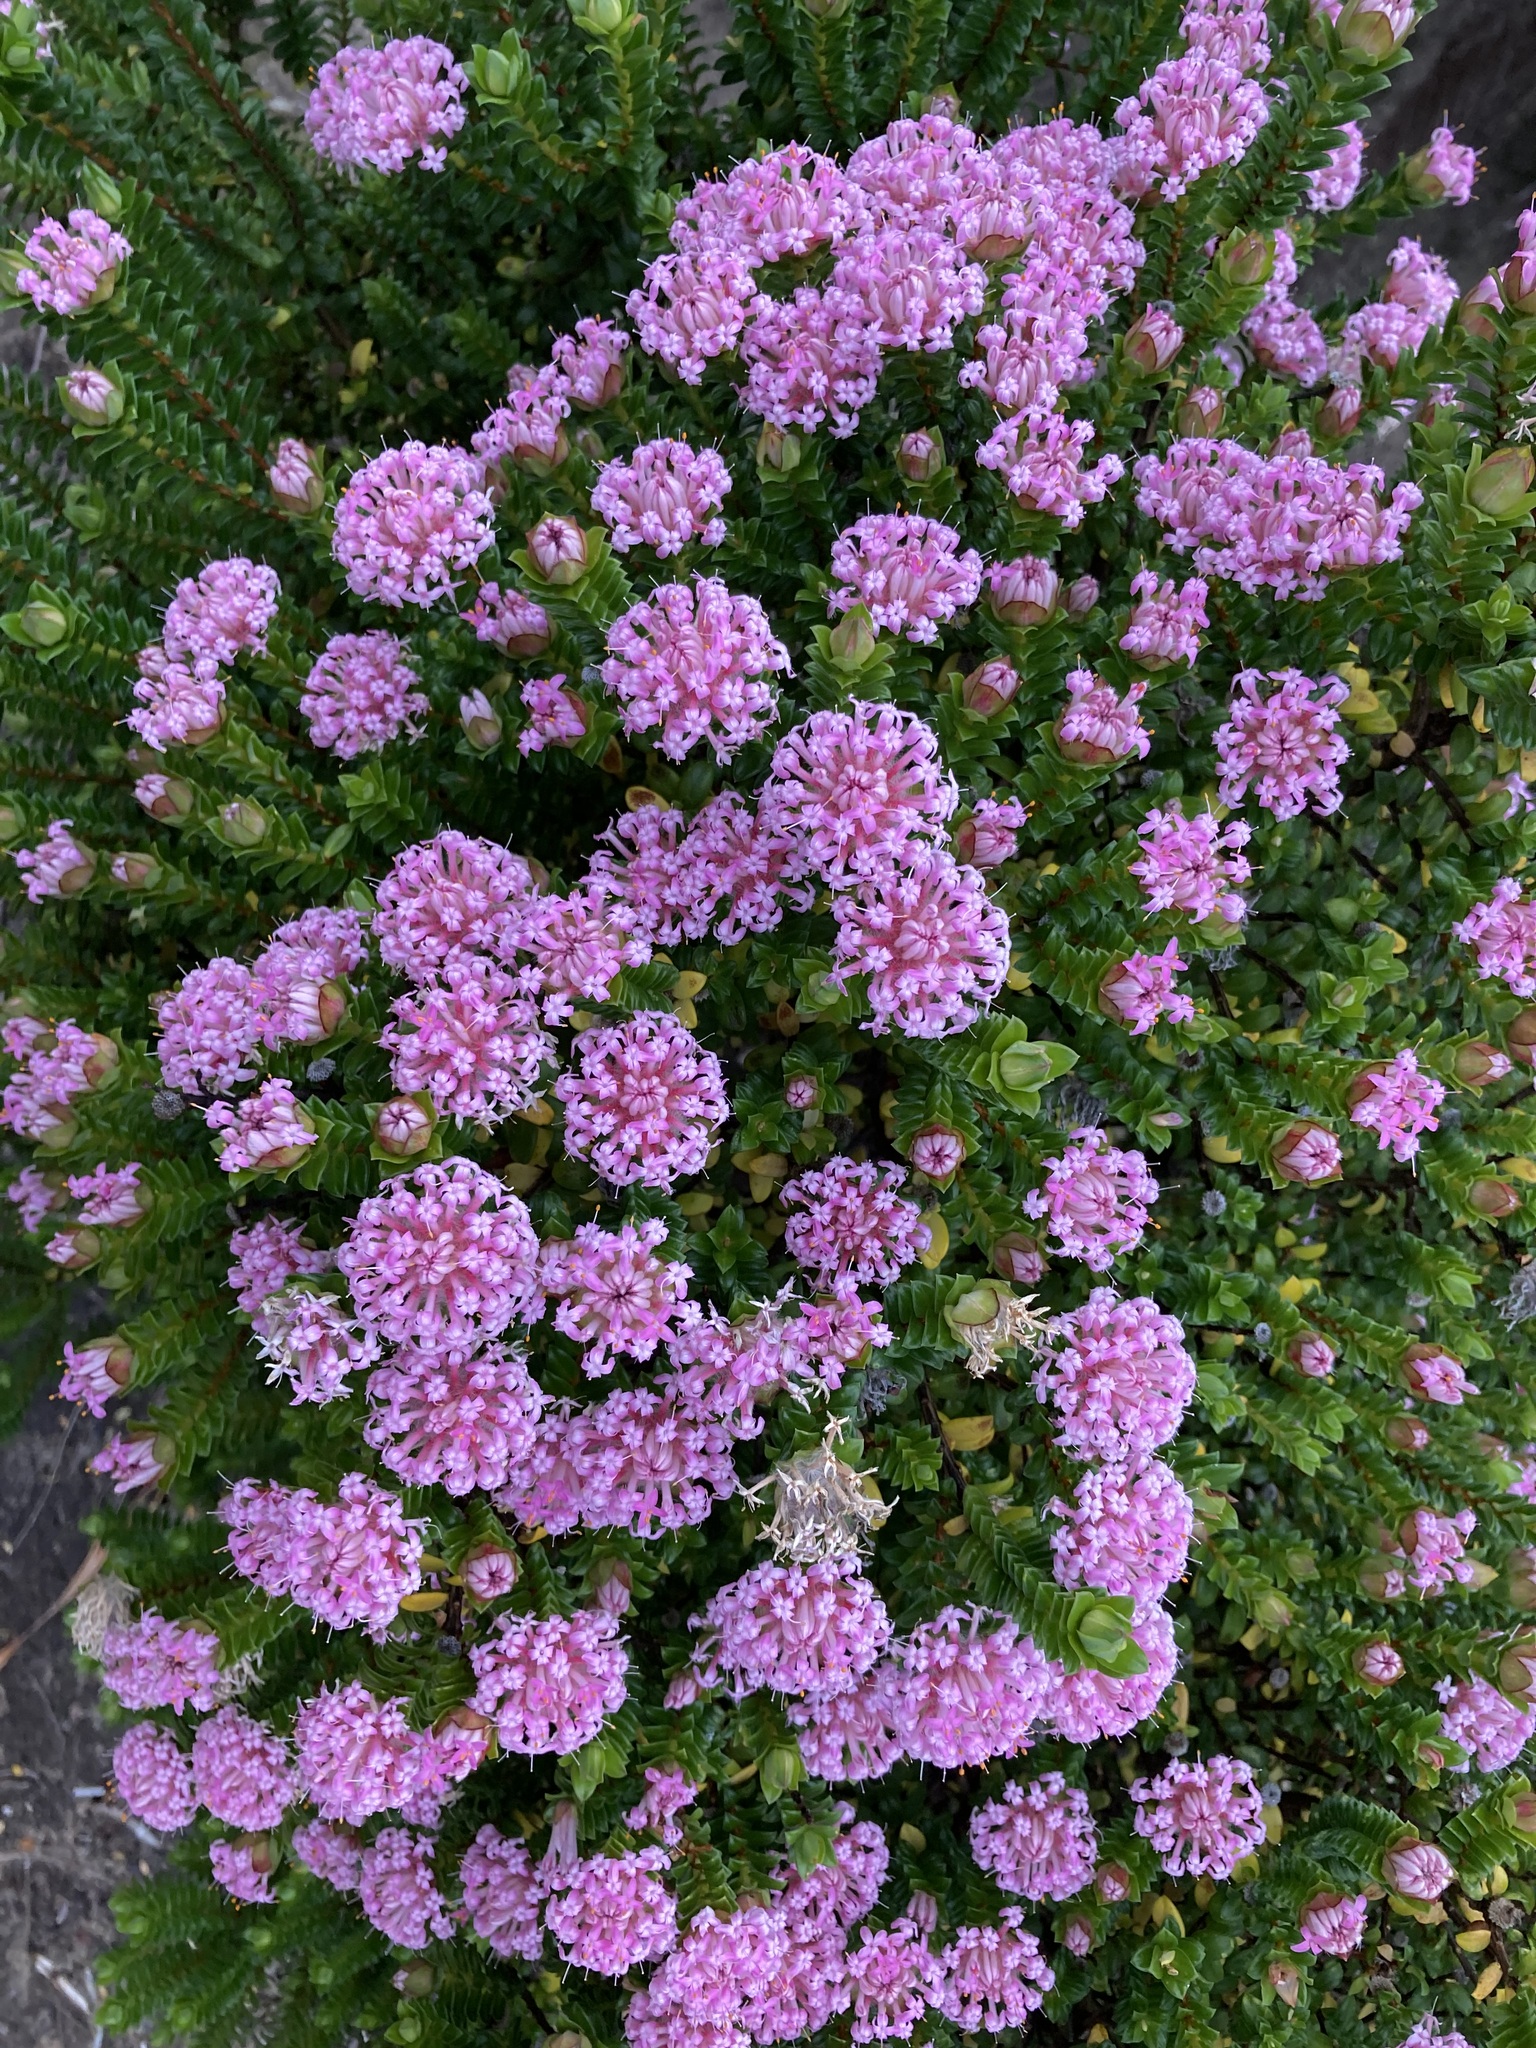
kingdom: Plantae
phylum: Tracheophyta
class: Magnoliopsida
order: Malvales
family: Thymelaeaceae
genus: Pimelea
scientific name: Pimelea ferruginea
